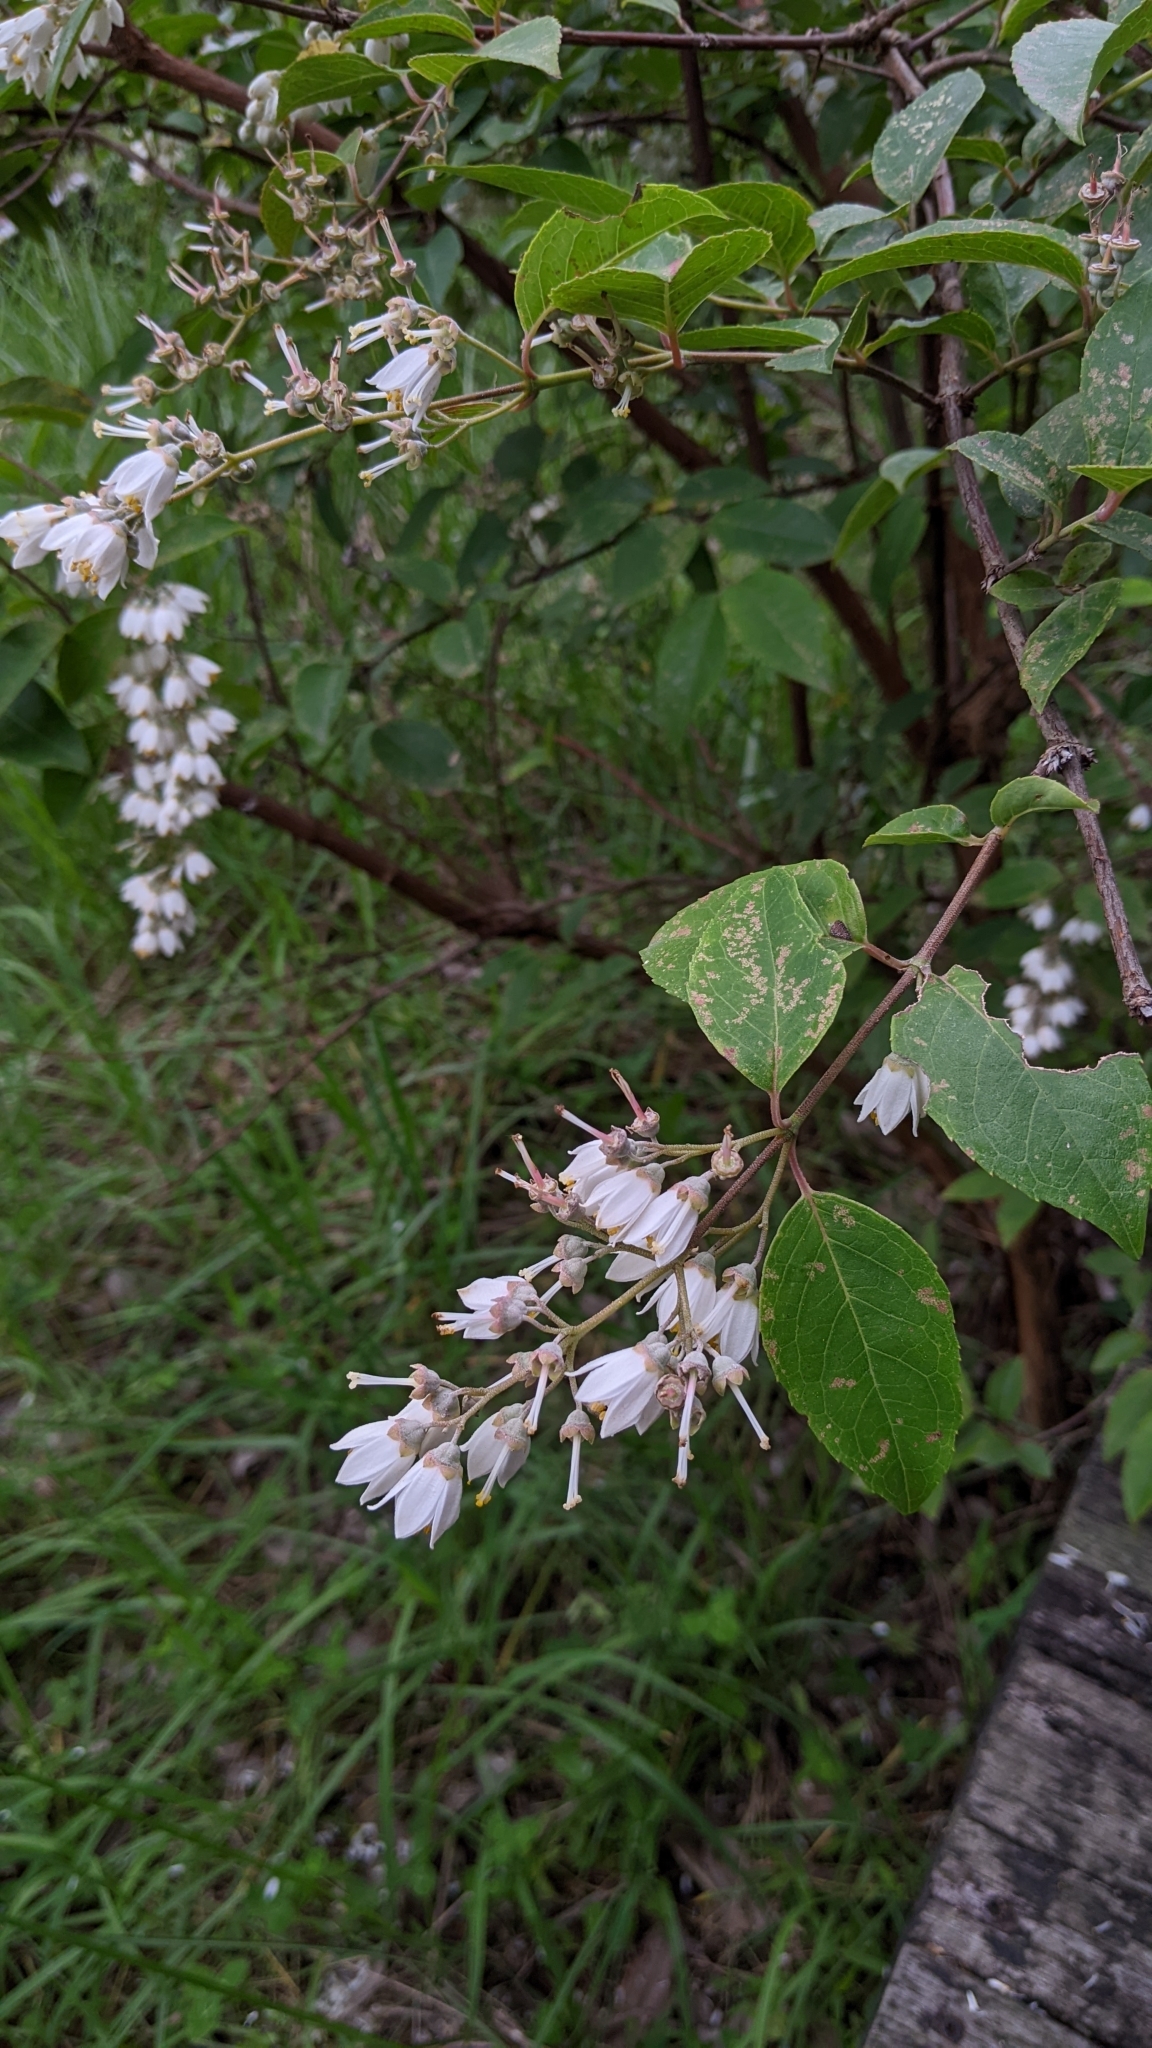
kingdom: Plantae
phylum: Tracheophyta
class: Magnoliopsida
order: Cornales
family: Hydrangeaceae
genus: Deutzia
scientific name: Deutzia pulchra
